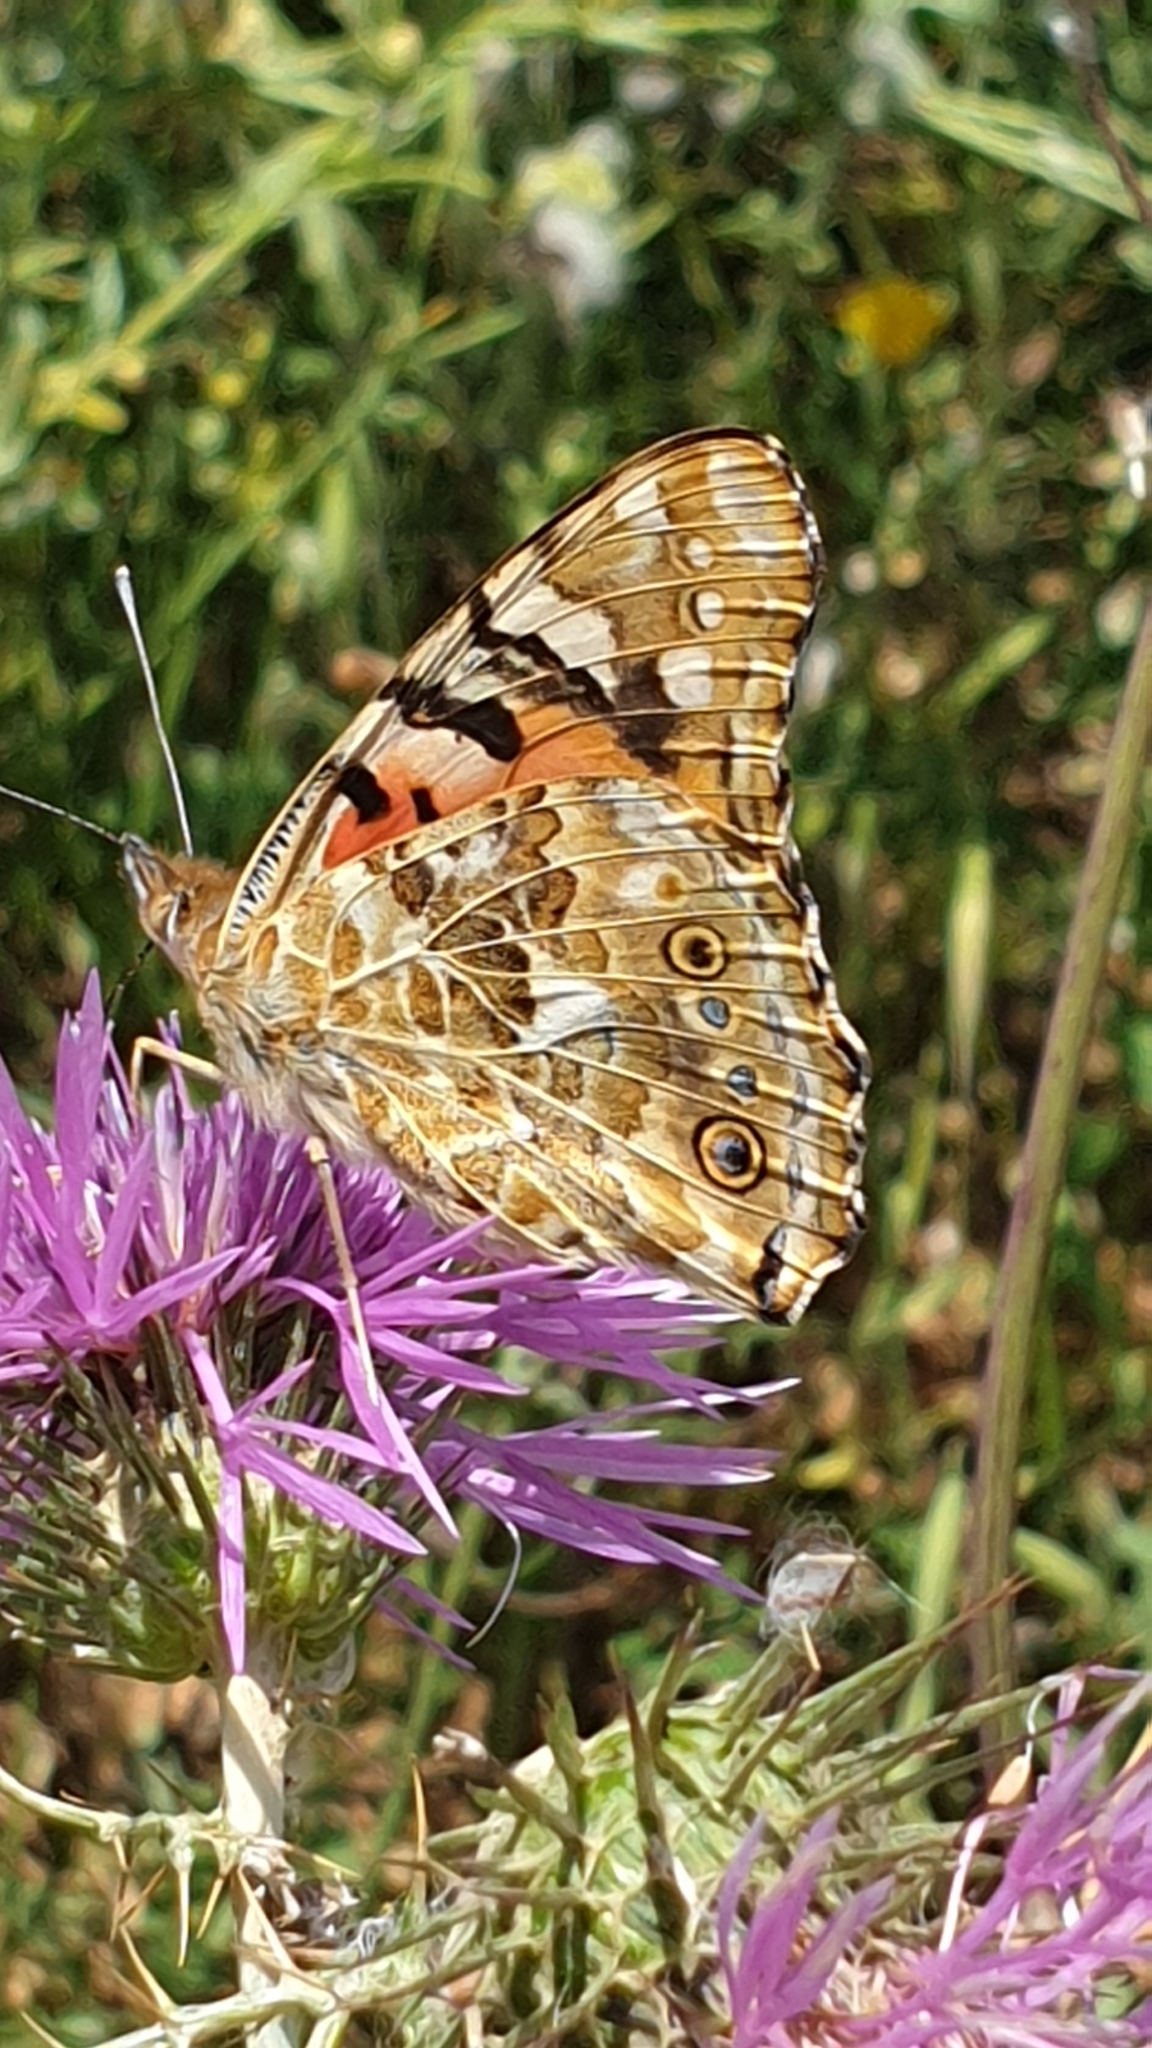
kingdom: Animalia
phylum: Arthropoda
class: Insecta
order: Lepidoptera
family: Nymphalidae
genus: Vanessa
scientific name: Vanessa cardui
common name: Painted lady
